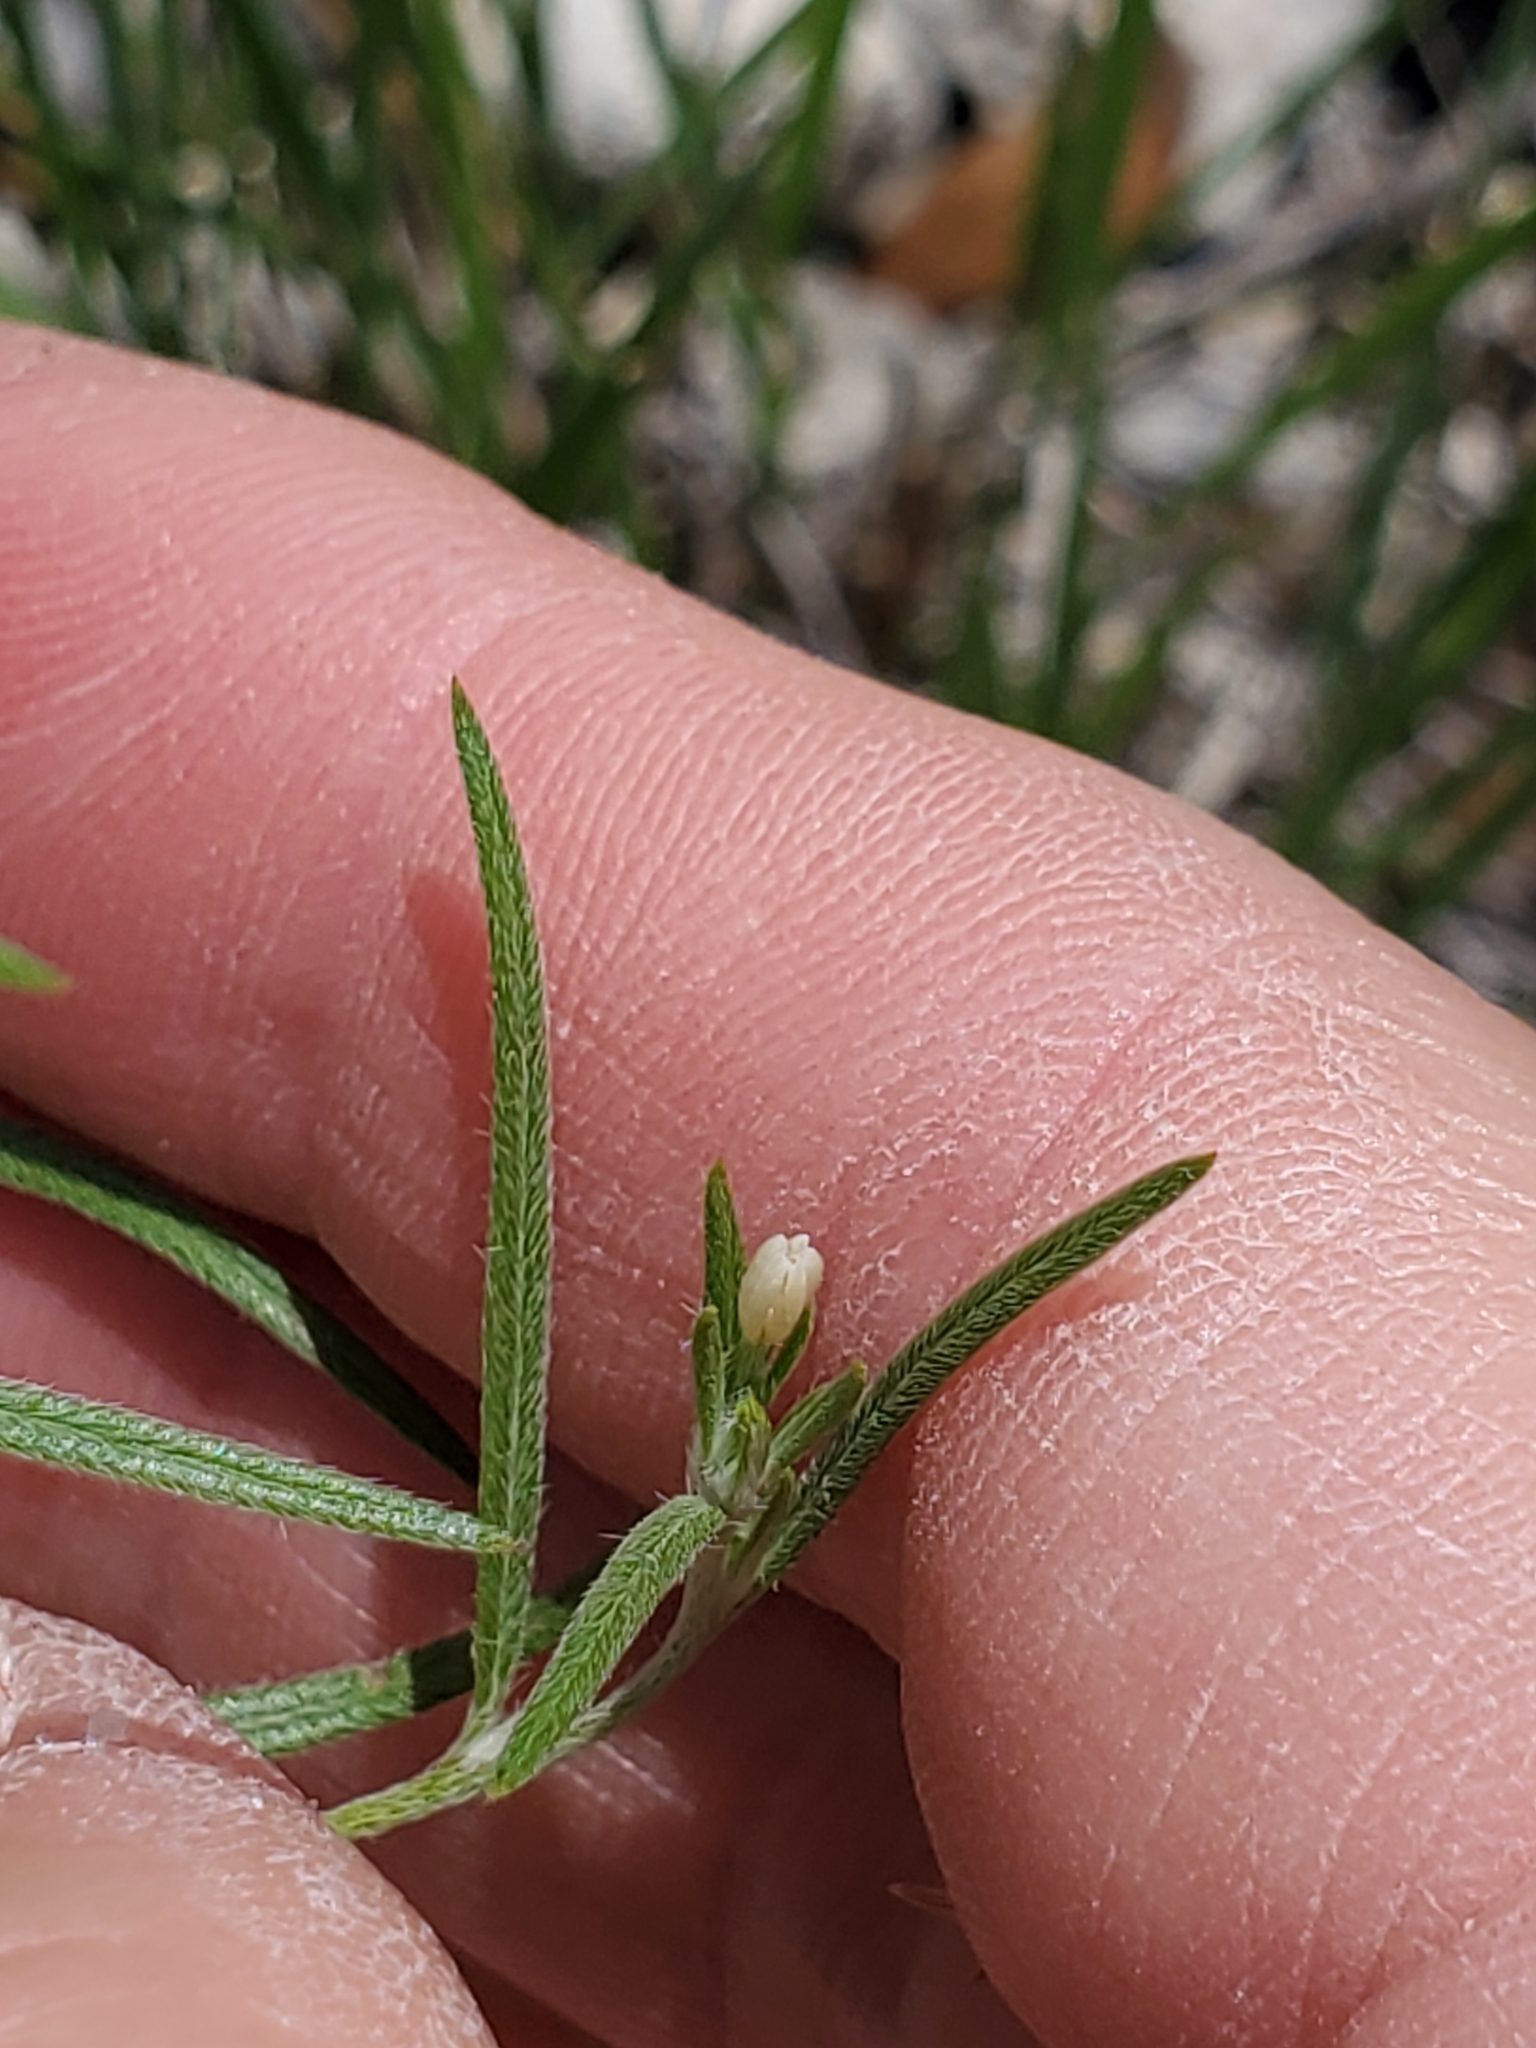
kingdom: Plantae
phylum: Tracheophyta
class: Magnoliopsida
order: Boraginales
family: Heliotropiaceae
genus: Euploca
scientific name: Euploca tenella
